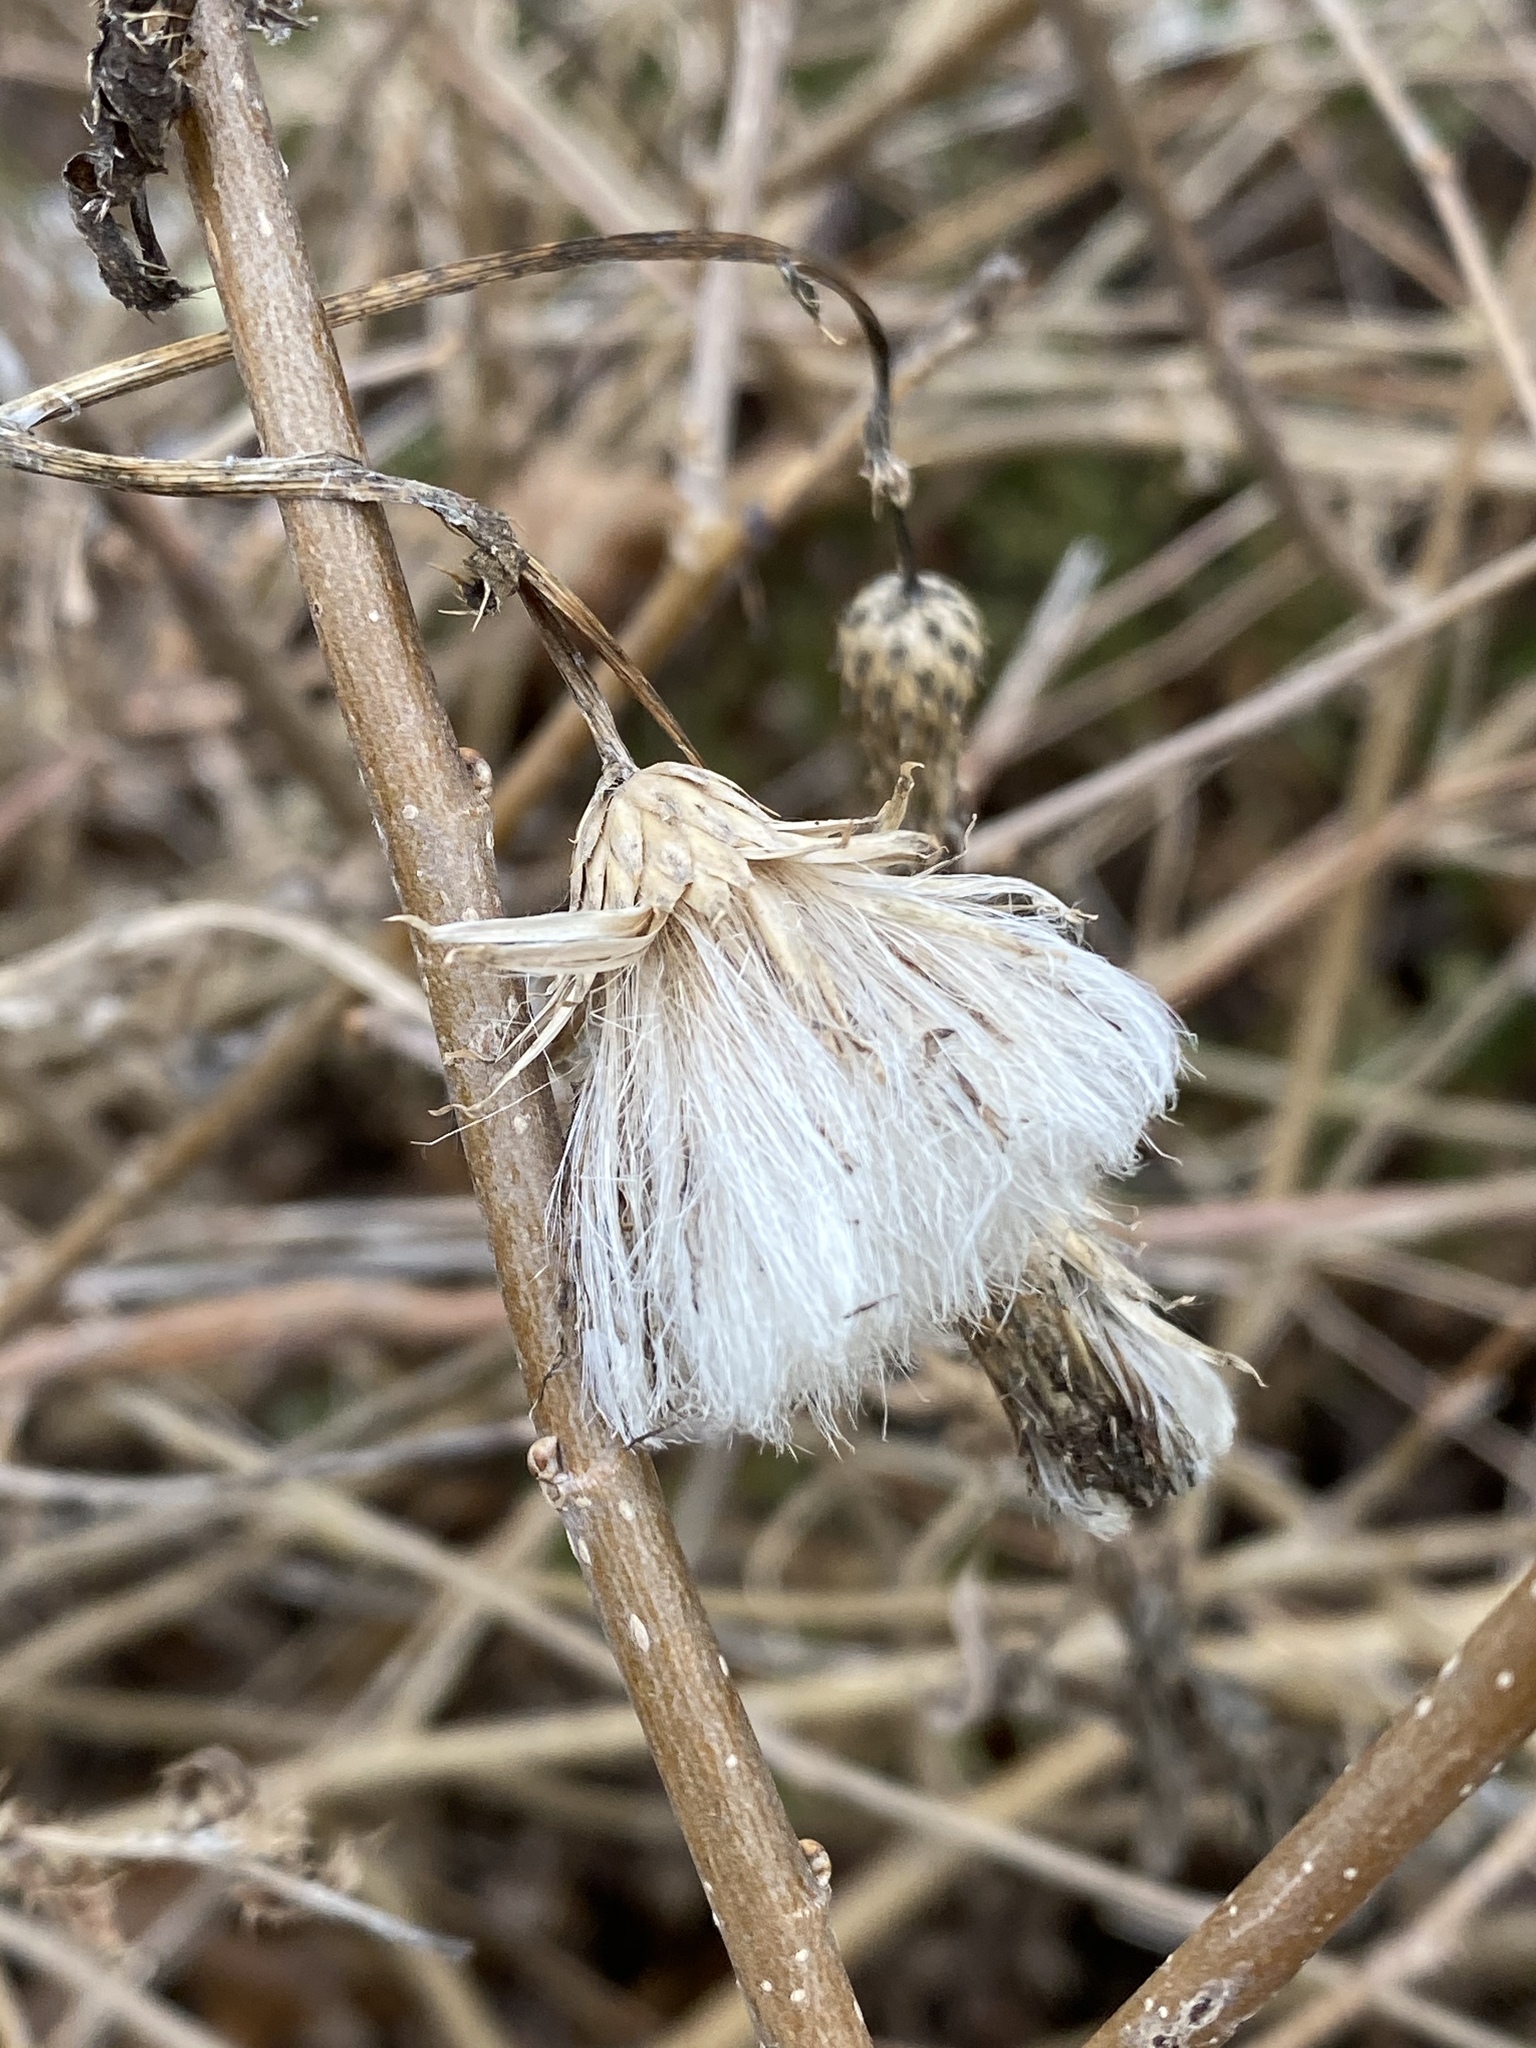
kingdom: Plantae
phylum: Tracheophyta
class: Magnoliopsida
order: Asterales
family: Asteraceae
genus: Cirsium
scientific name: Cirsium arvense
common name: Creeping thistle
